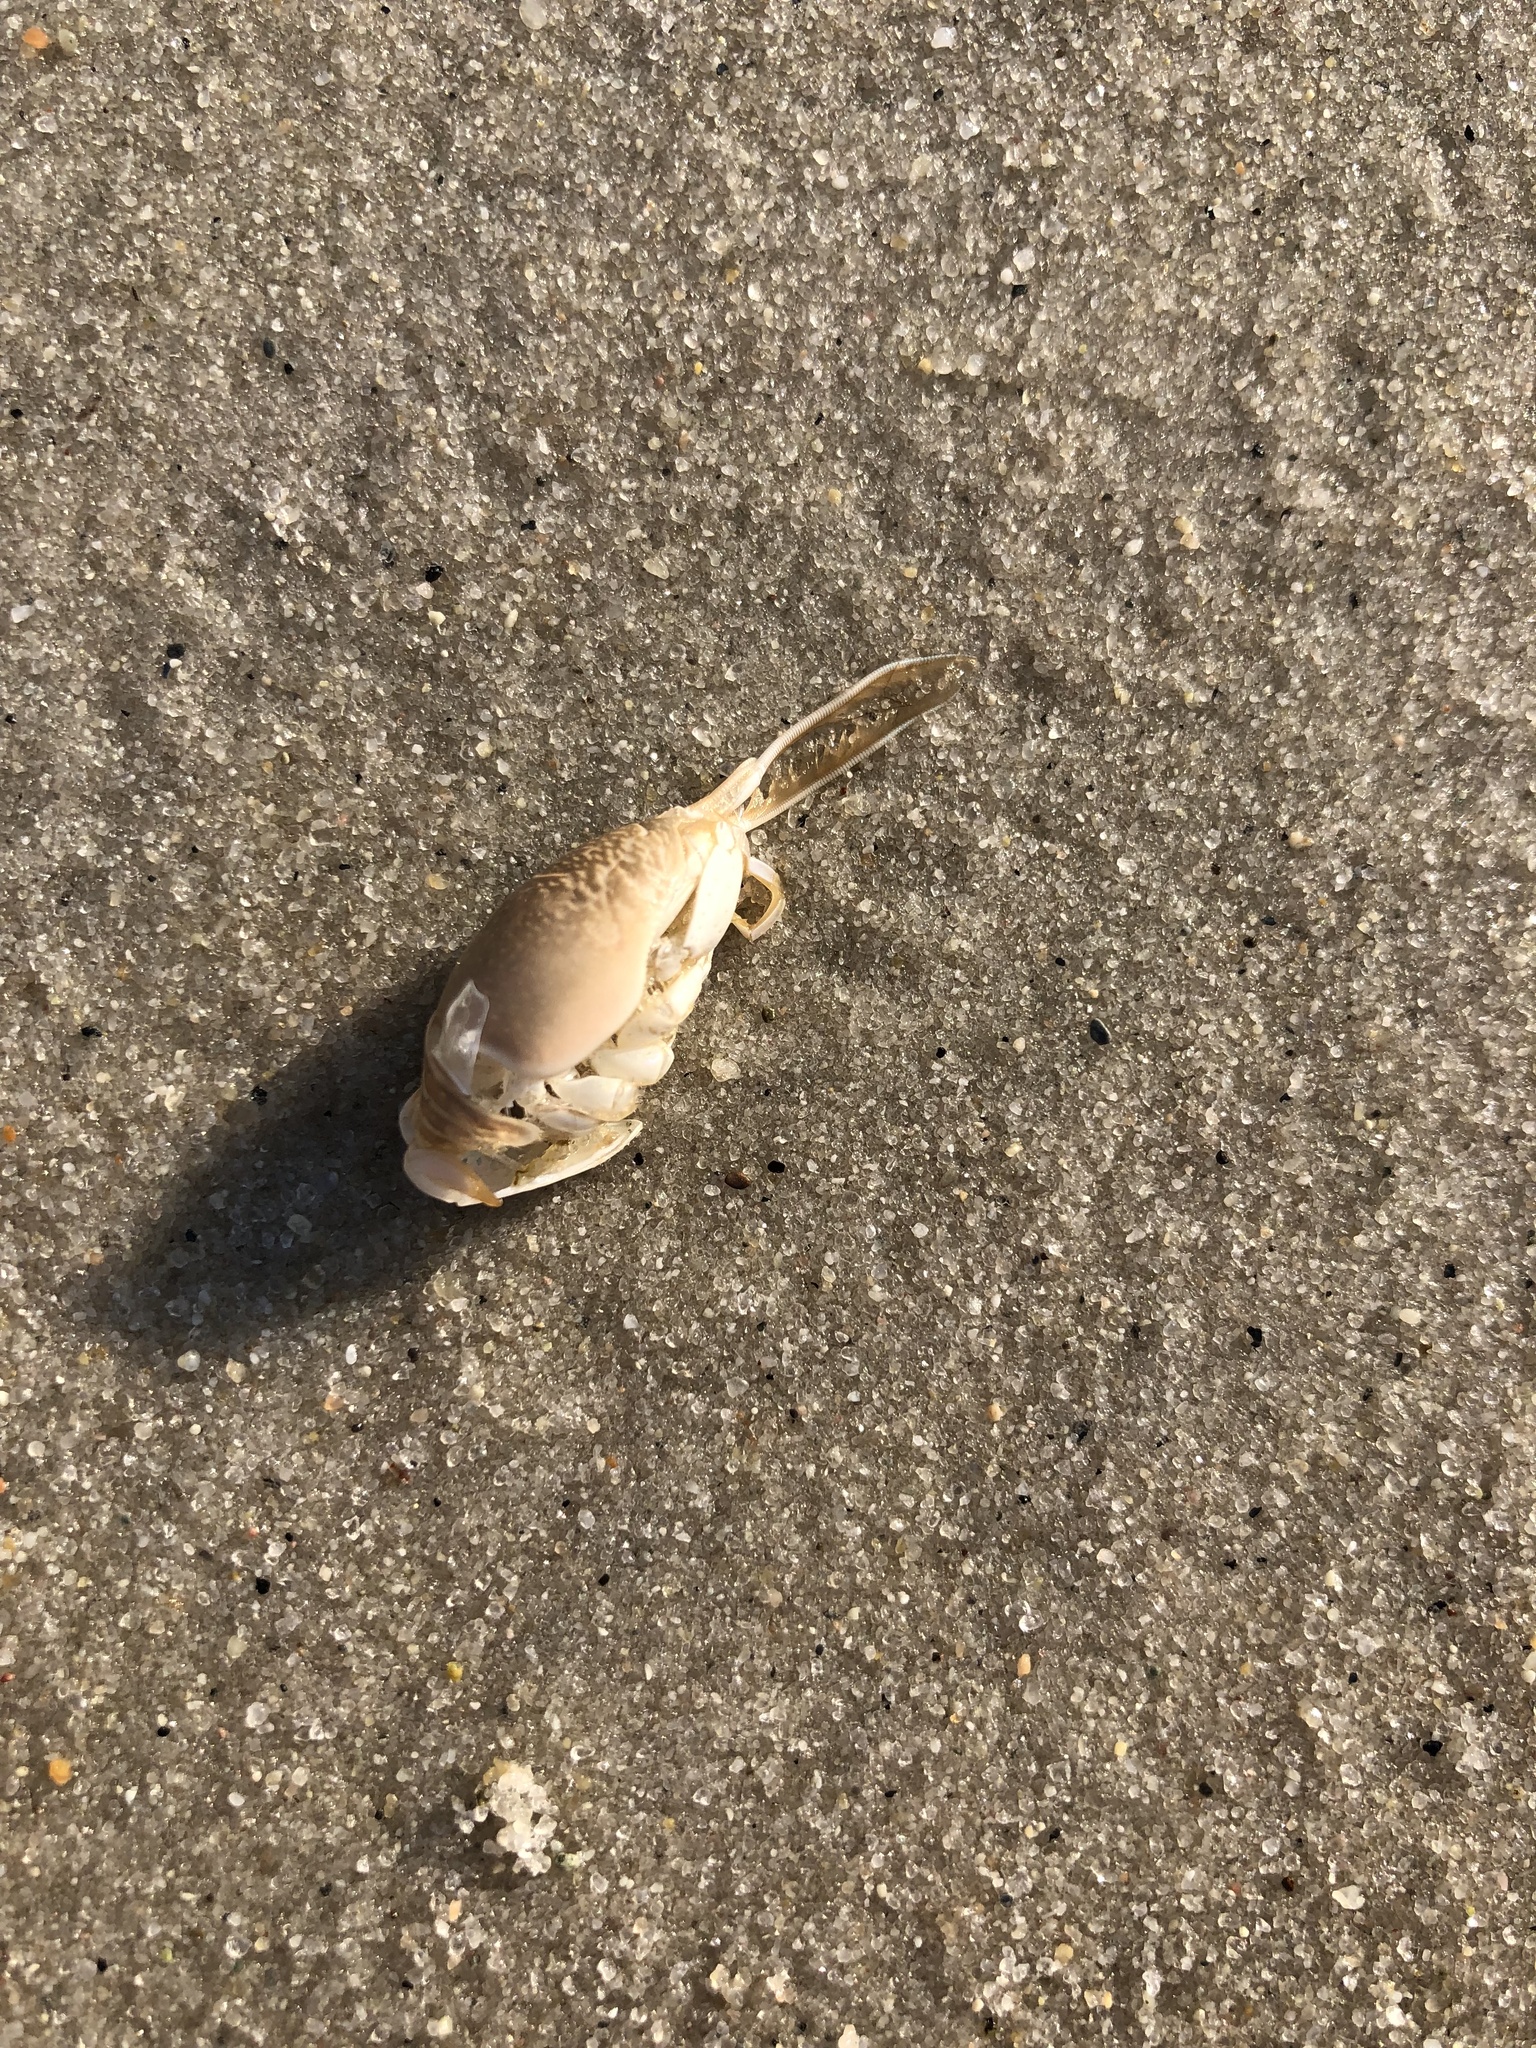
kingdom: Animalia
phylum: Arthropoda
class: Malacostraca
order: Decapoda
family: Hippidae
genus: Emerita
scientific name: Emerita talpoida
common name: Atlantic sand crab
